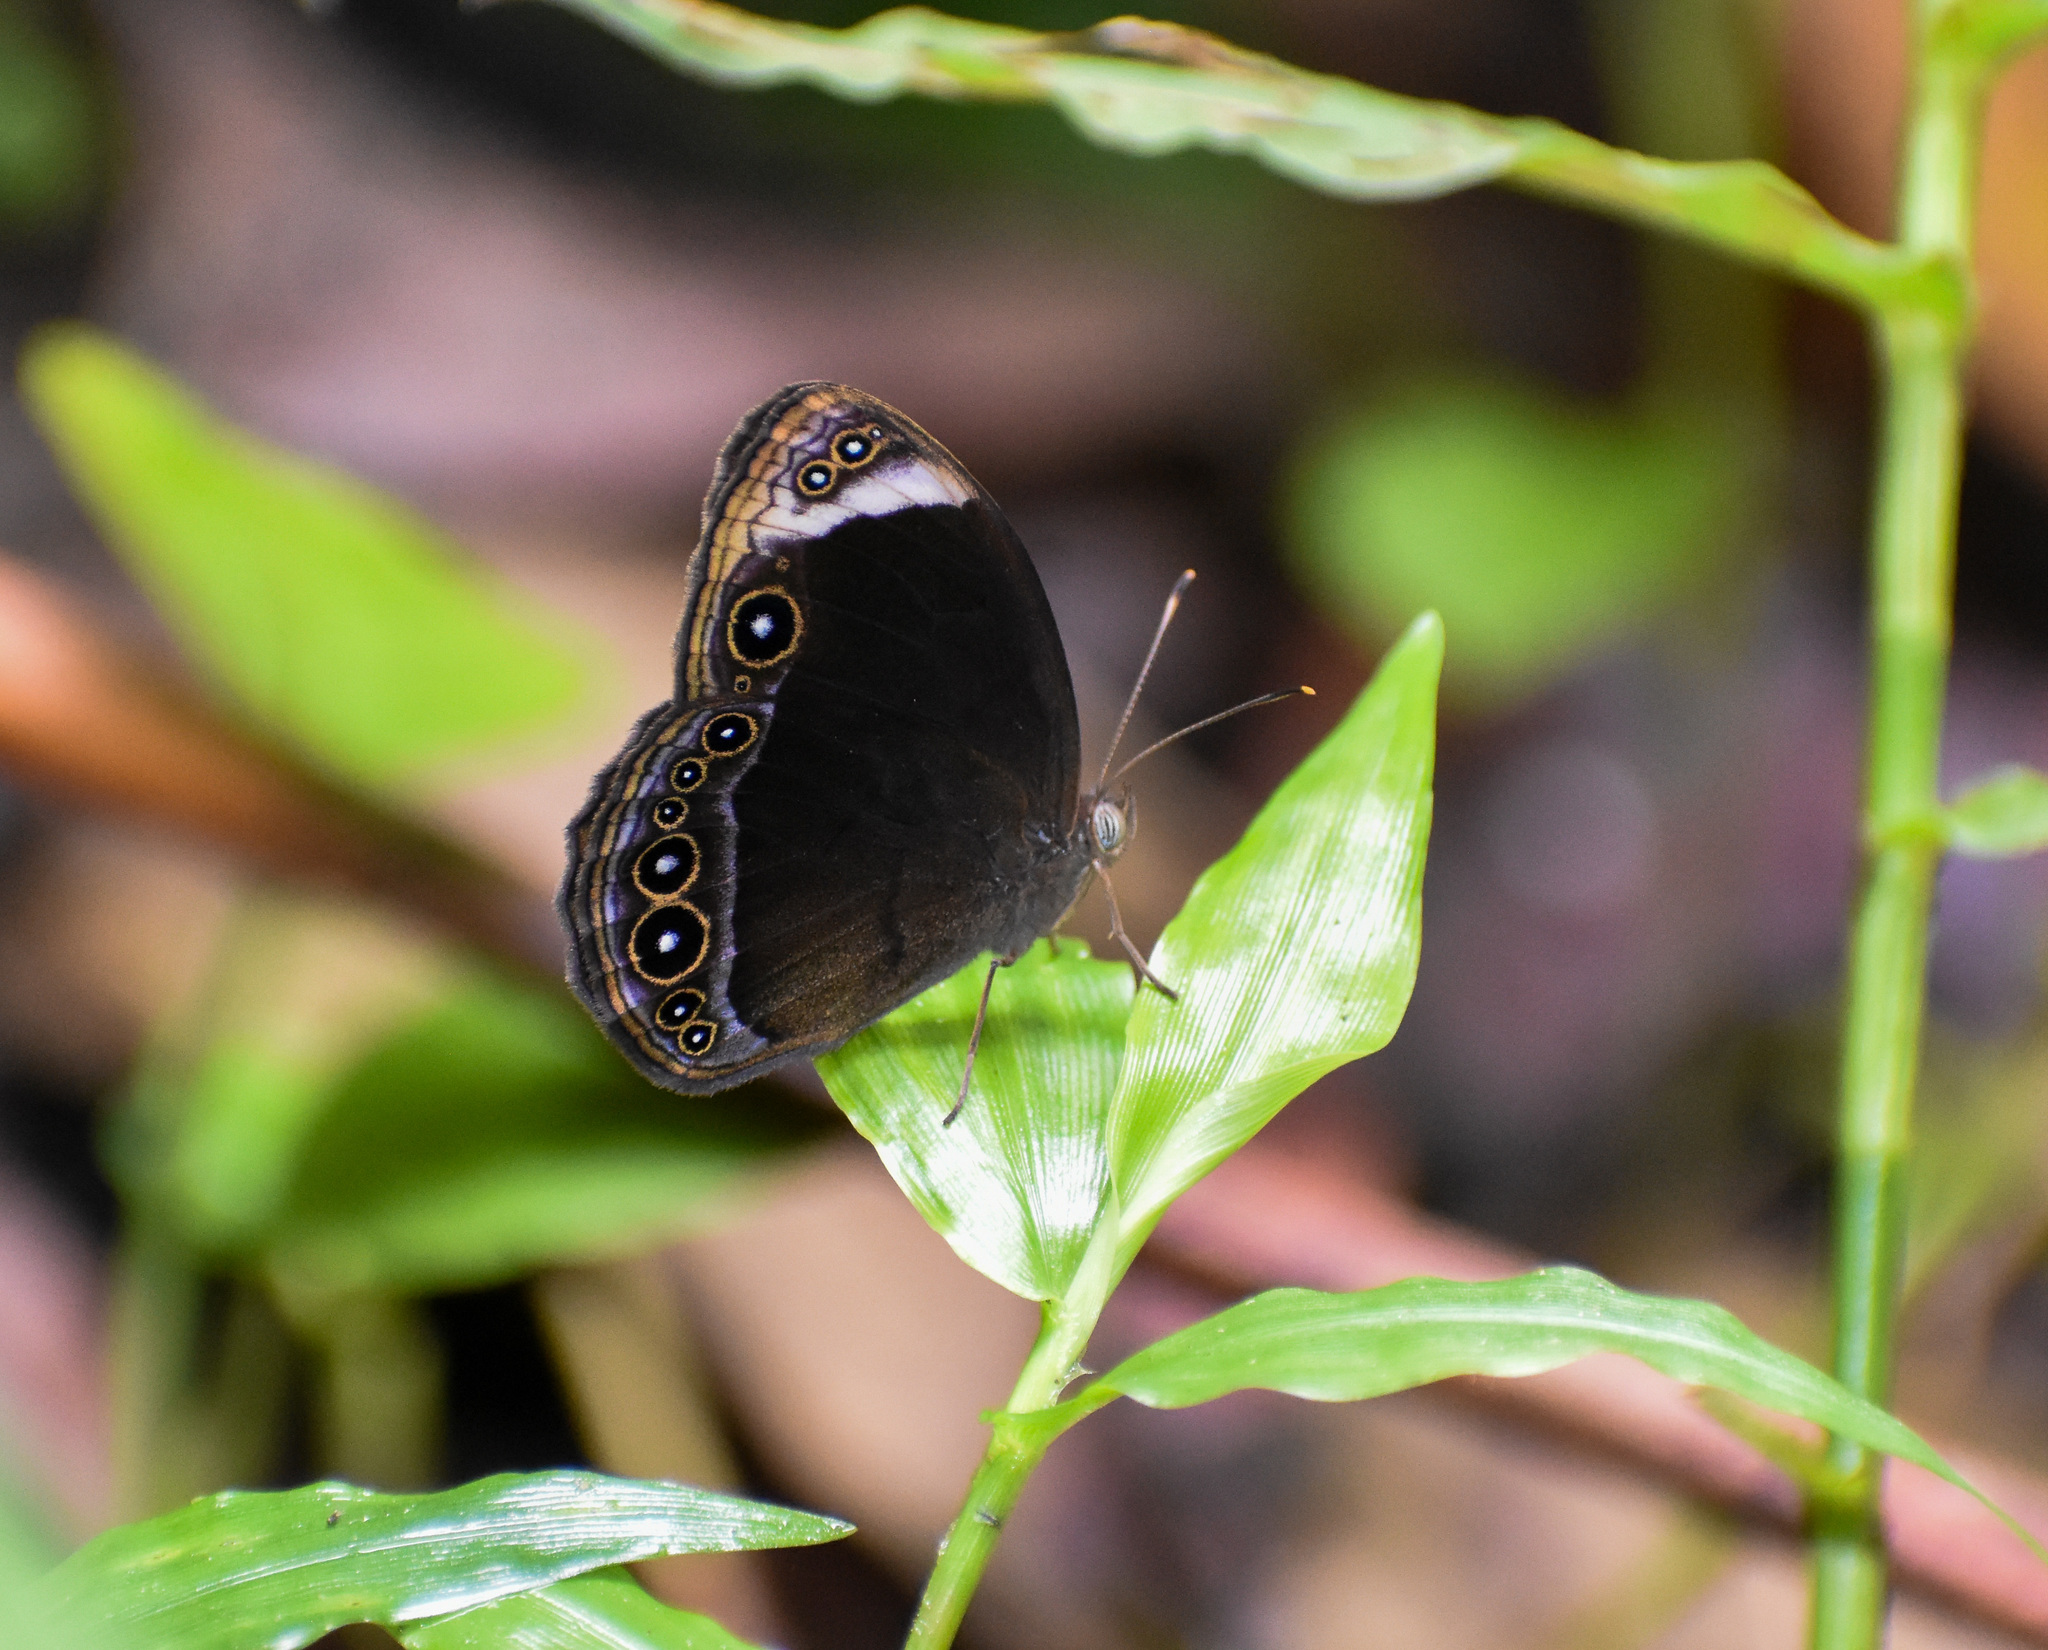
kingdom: Animalia
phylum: Arthropoda
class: Insecta
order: Lepidoptera
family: Nymphalidae
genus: Mycalesis
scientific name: Mycalesis anaxias
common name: White-bar bushbrown
